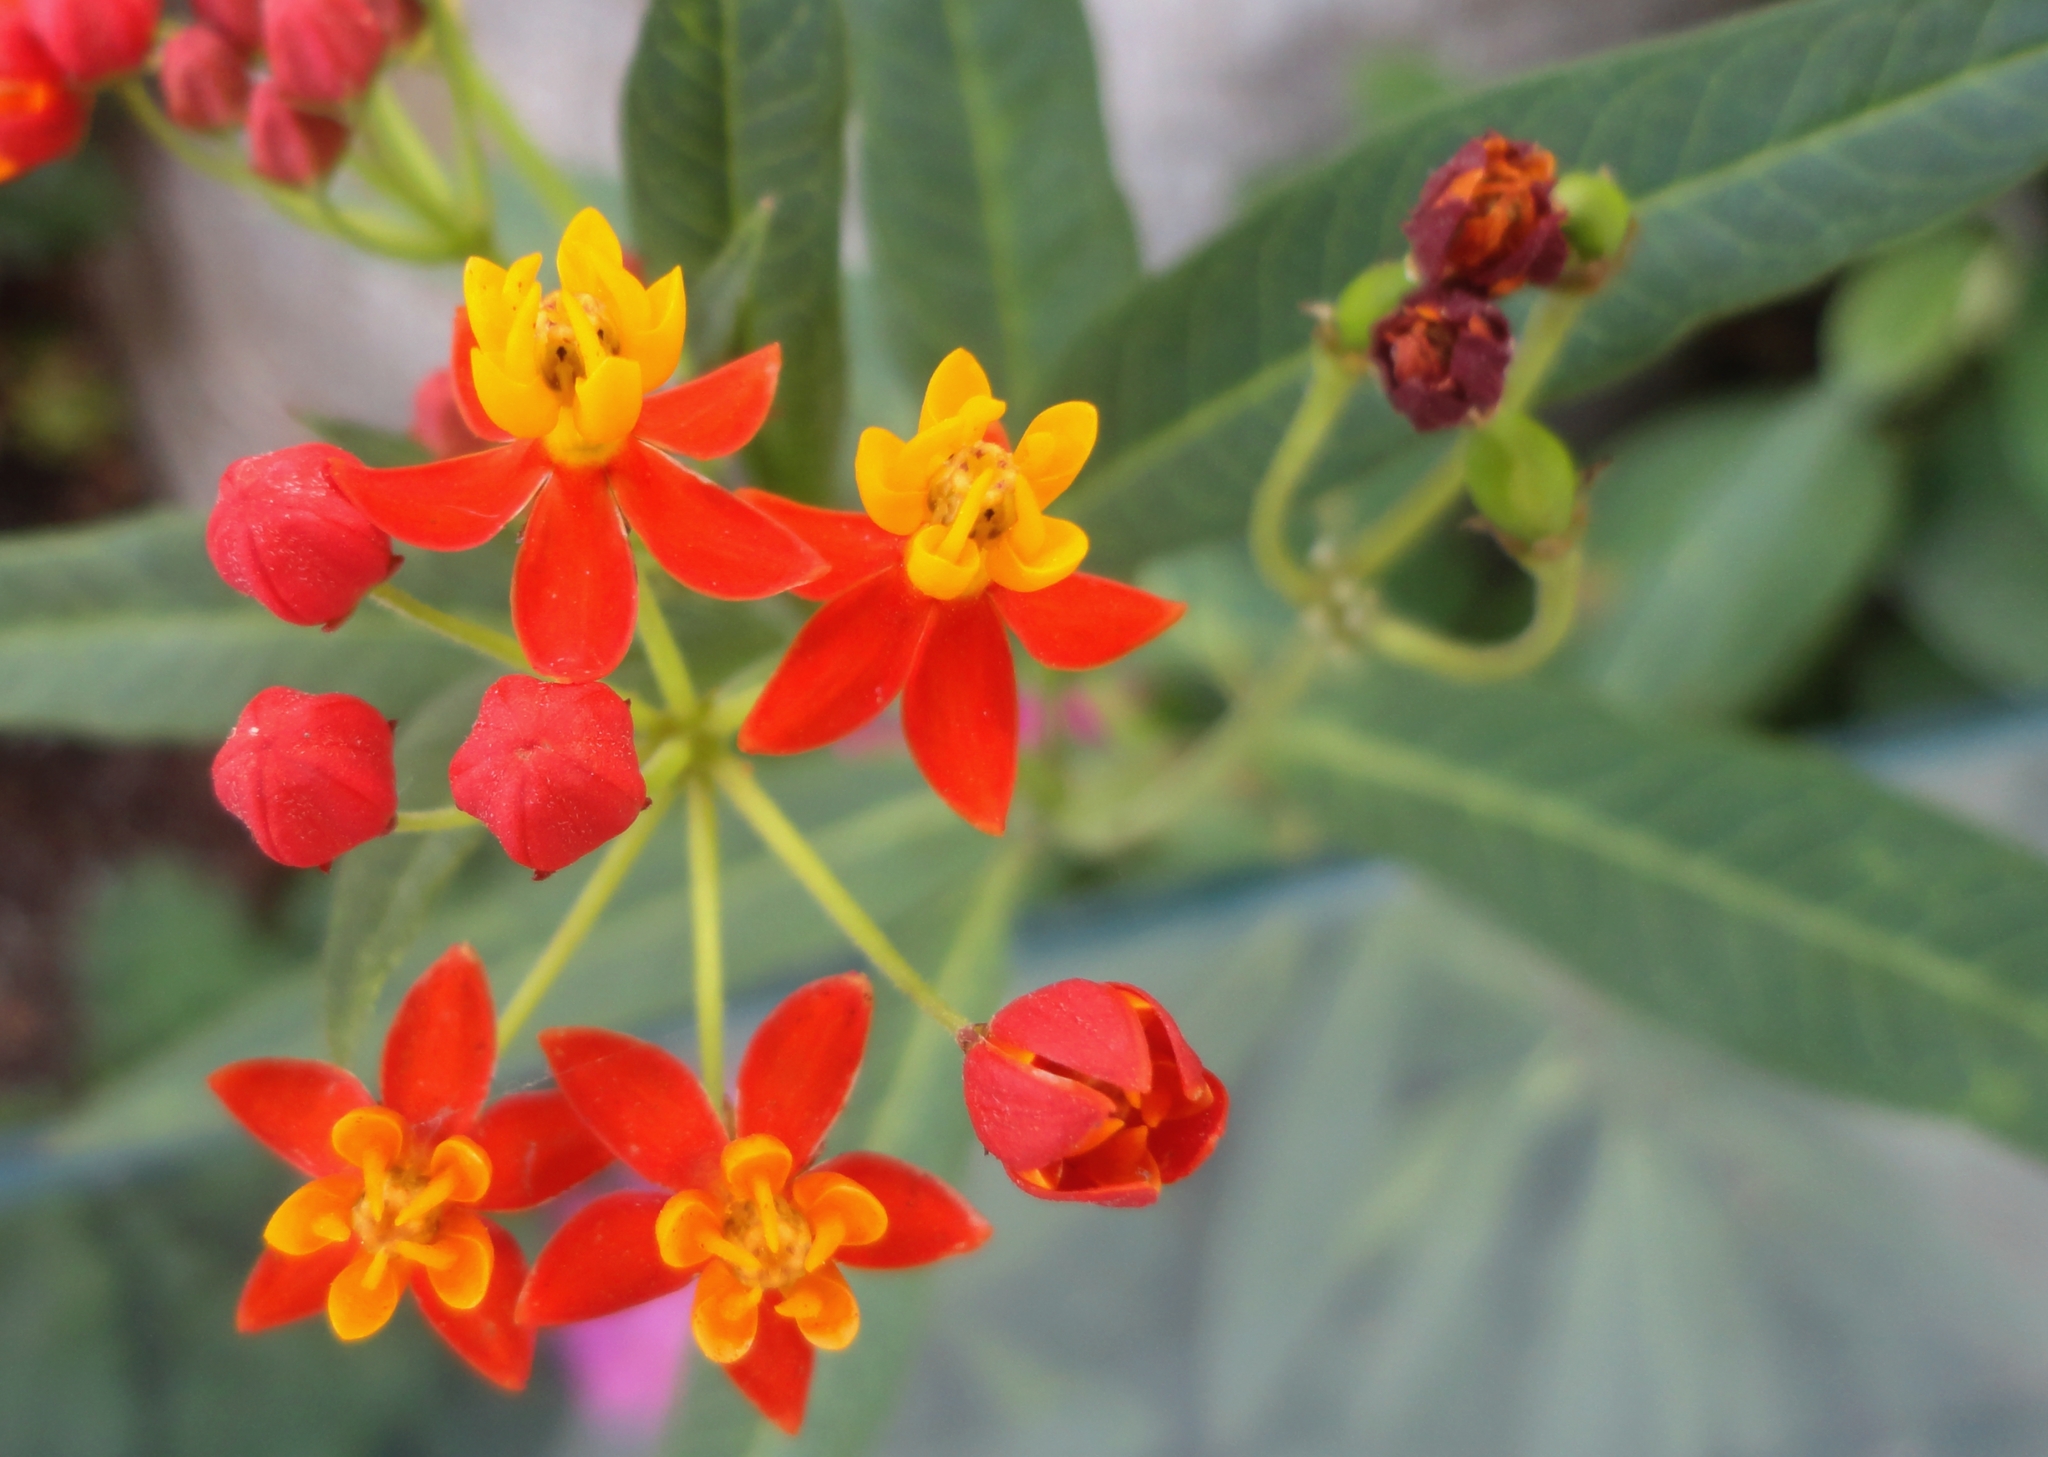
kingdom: Plantae
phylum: Tracheophyta
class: Magnoliopsida
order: Gentianales
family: Apocynaceae
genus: Asclepias
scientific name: Asclepias curassavica
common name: Bloodflower
